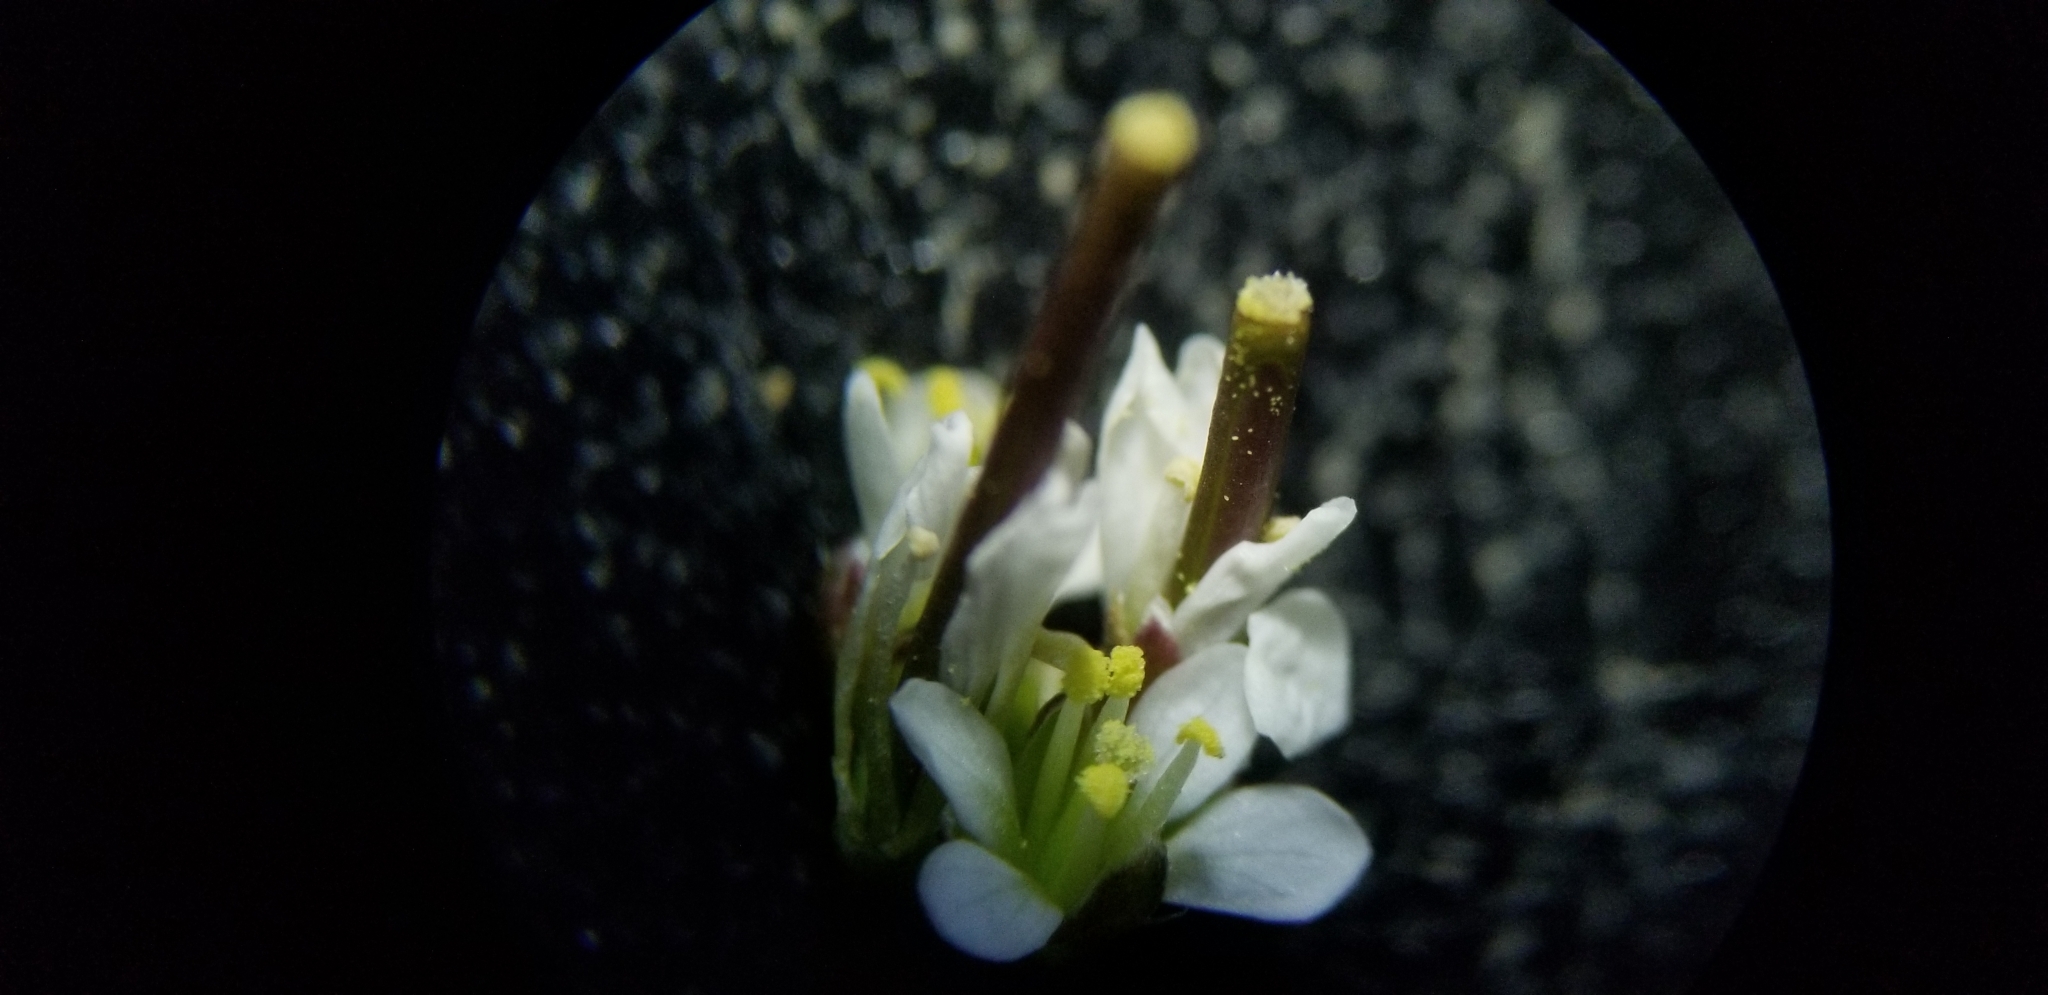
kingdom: Plantae
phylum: Tracheophyta
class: Magnoliopsida
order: Brassicales
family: Brassicaceae
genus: Cardamine
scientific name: Cardamine hirsuta
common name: Hairy bittercress
